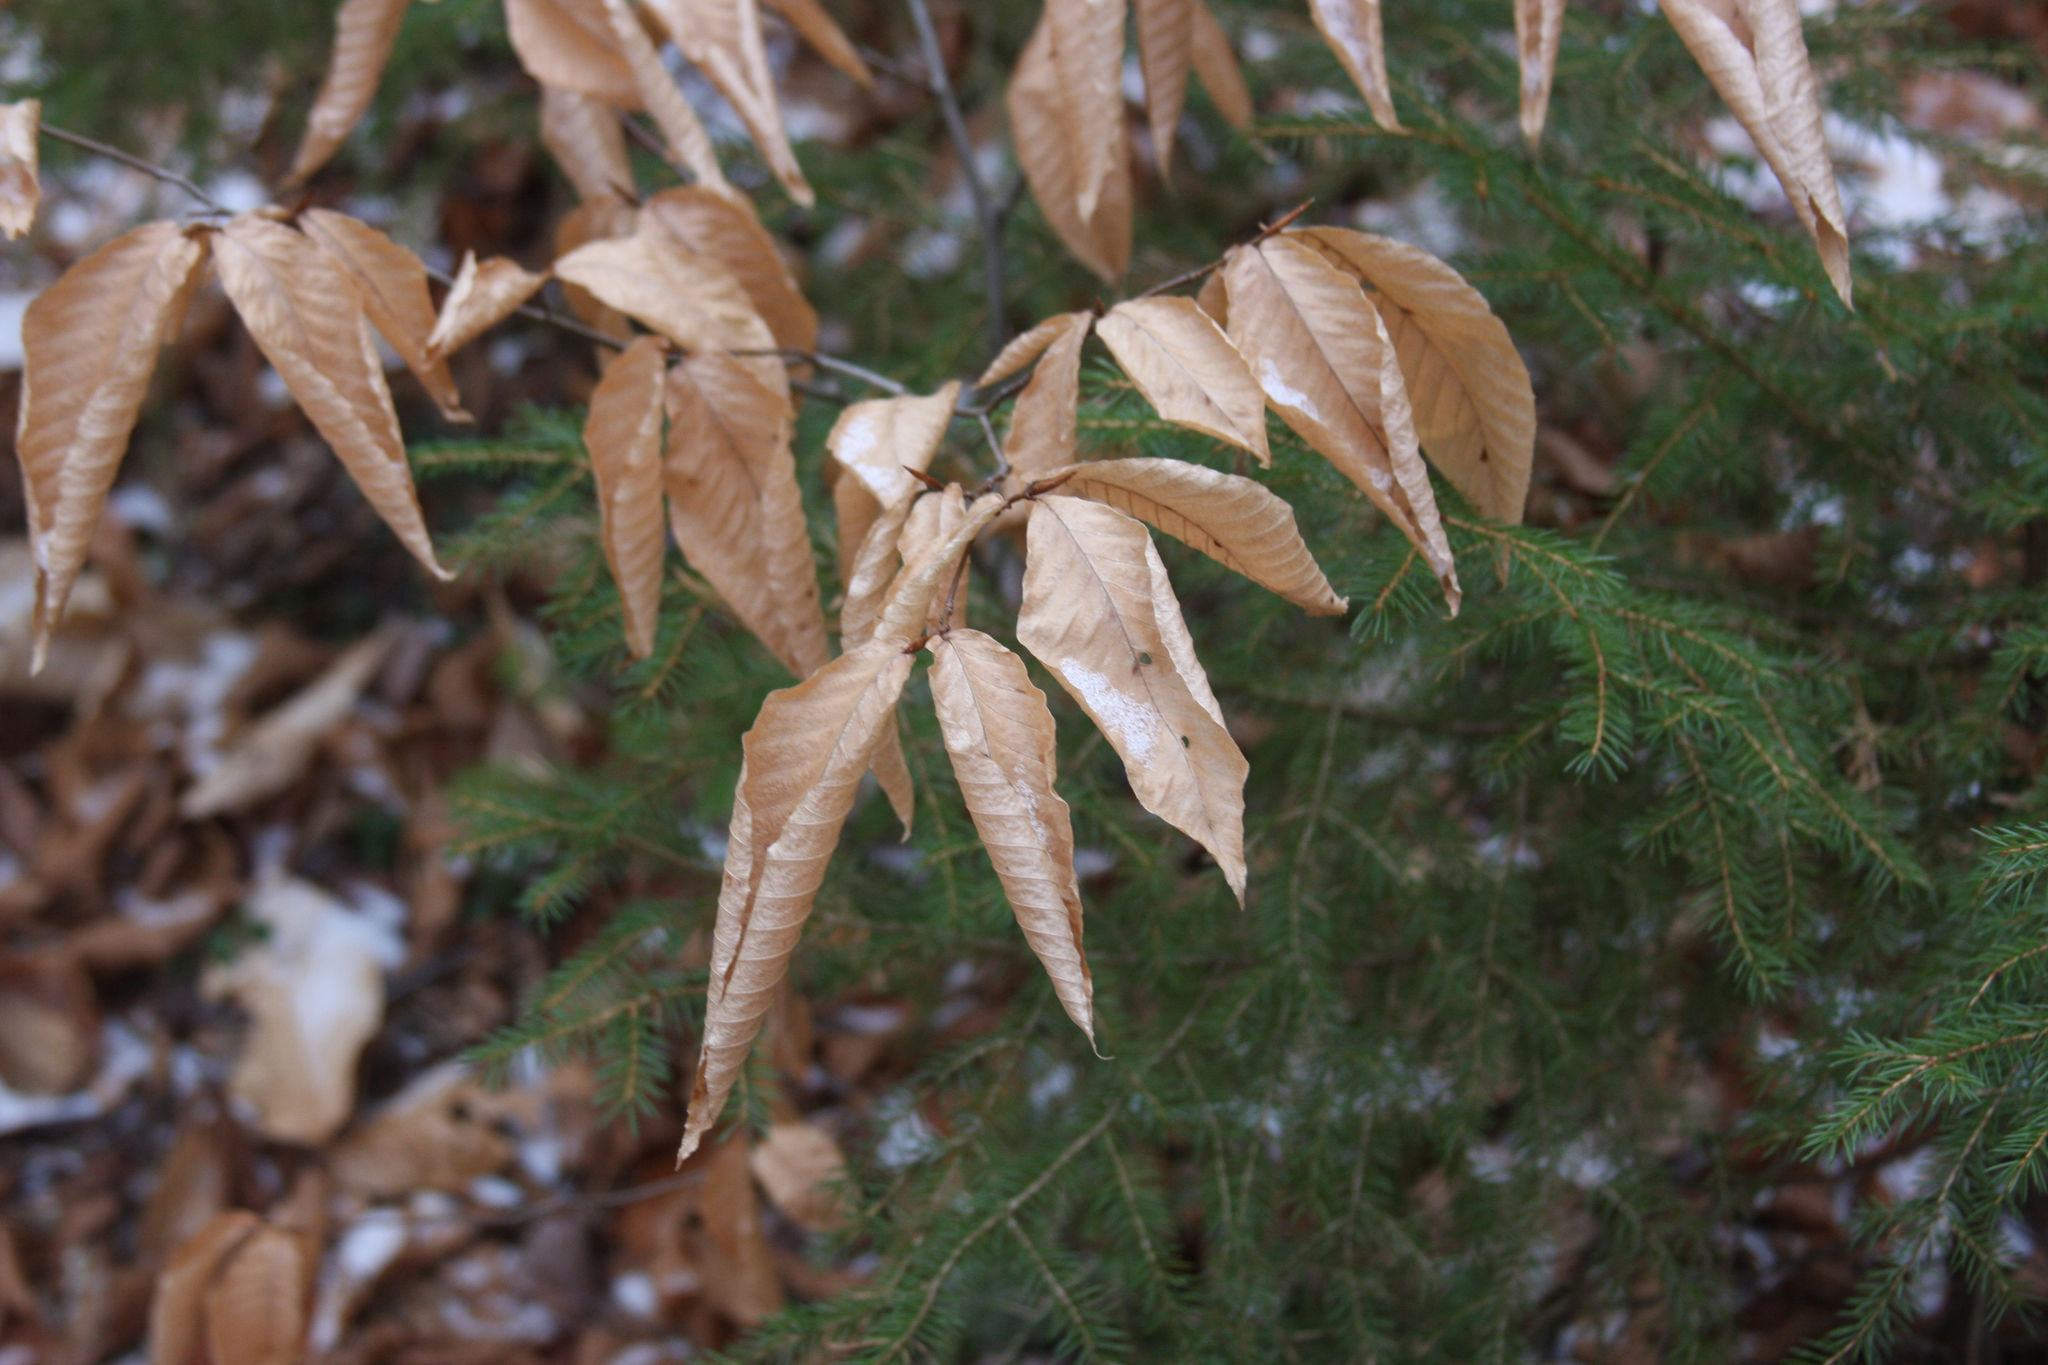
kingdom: Plantae
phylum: Tracheophyta
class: Magnoliopsida
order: Fagales
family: Fagaceae
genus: Fagus
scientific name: Fagus grandifolia
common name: American beech
